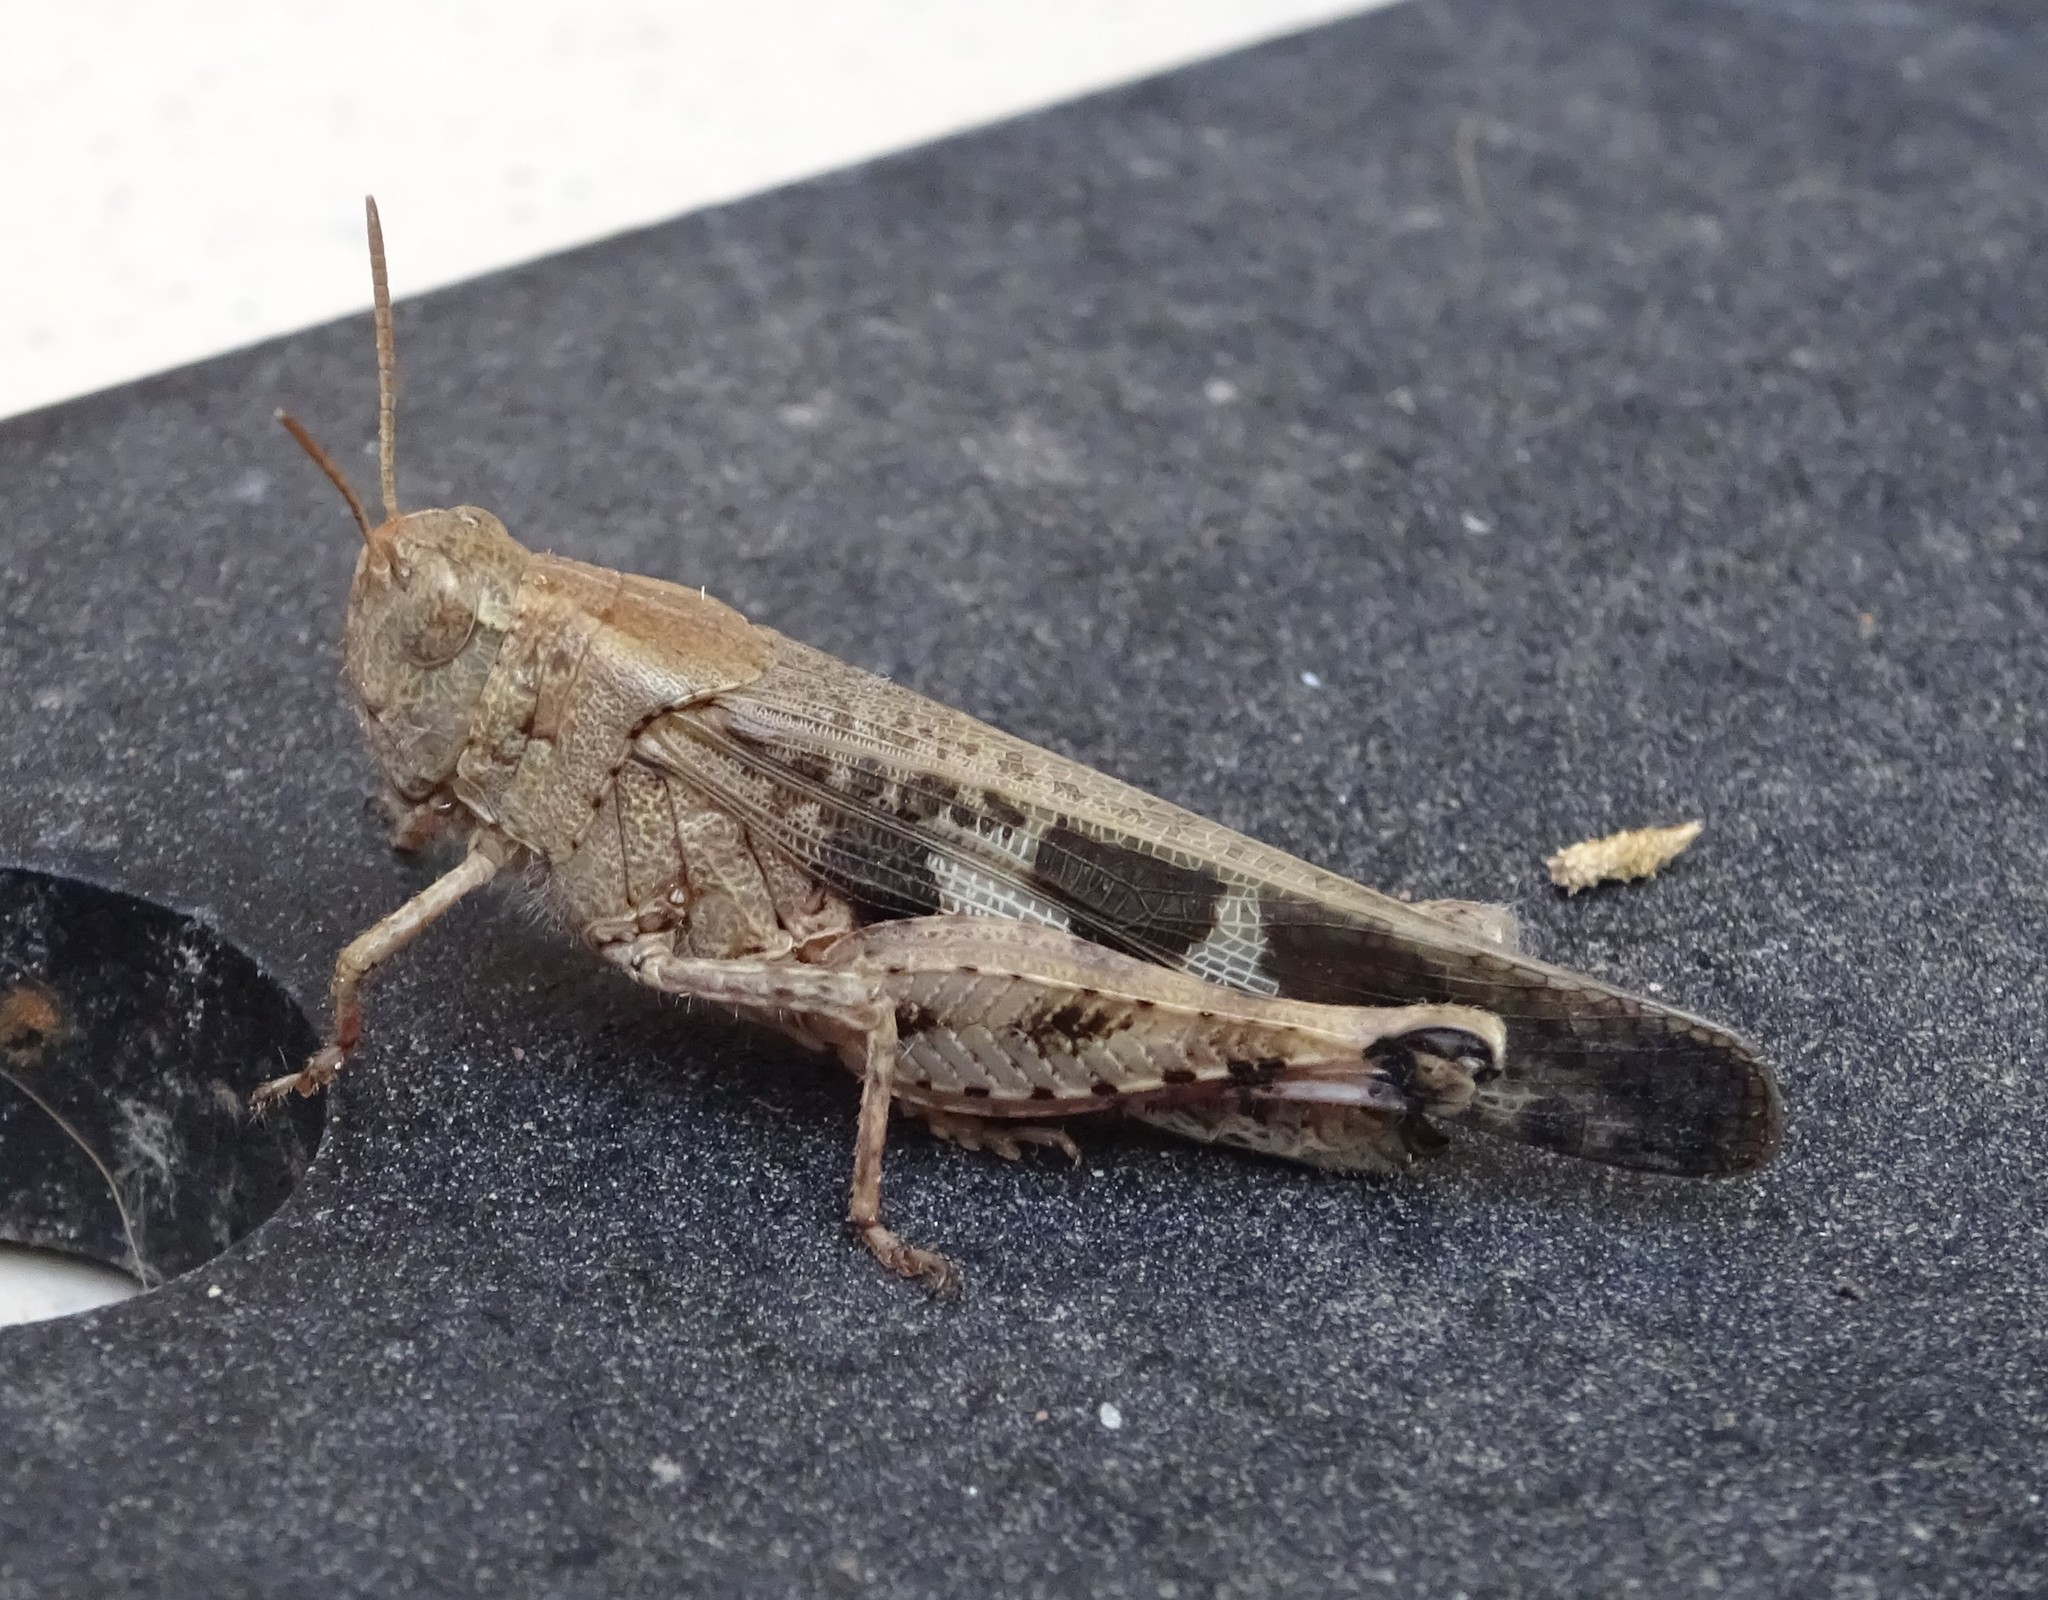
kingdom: Animalia
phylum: Arthropoda
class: Insecta
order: Orthoptera
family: Acrididae
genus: Aiolopus
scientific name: Aiolopus strepens
